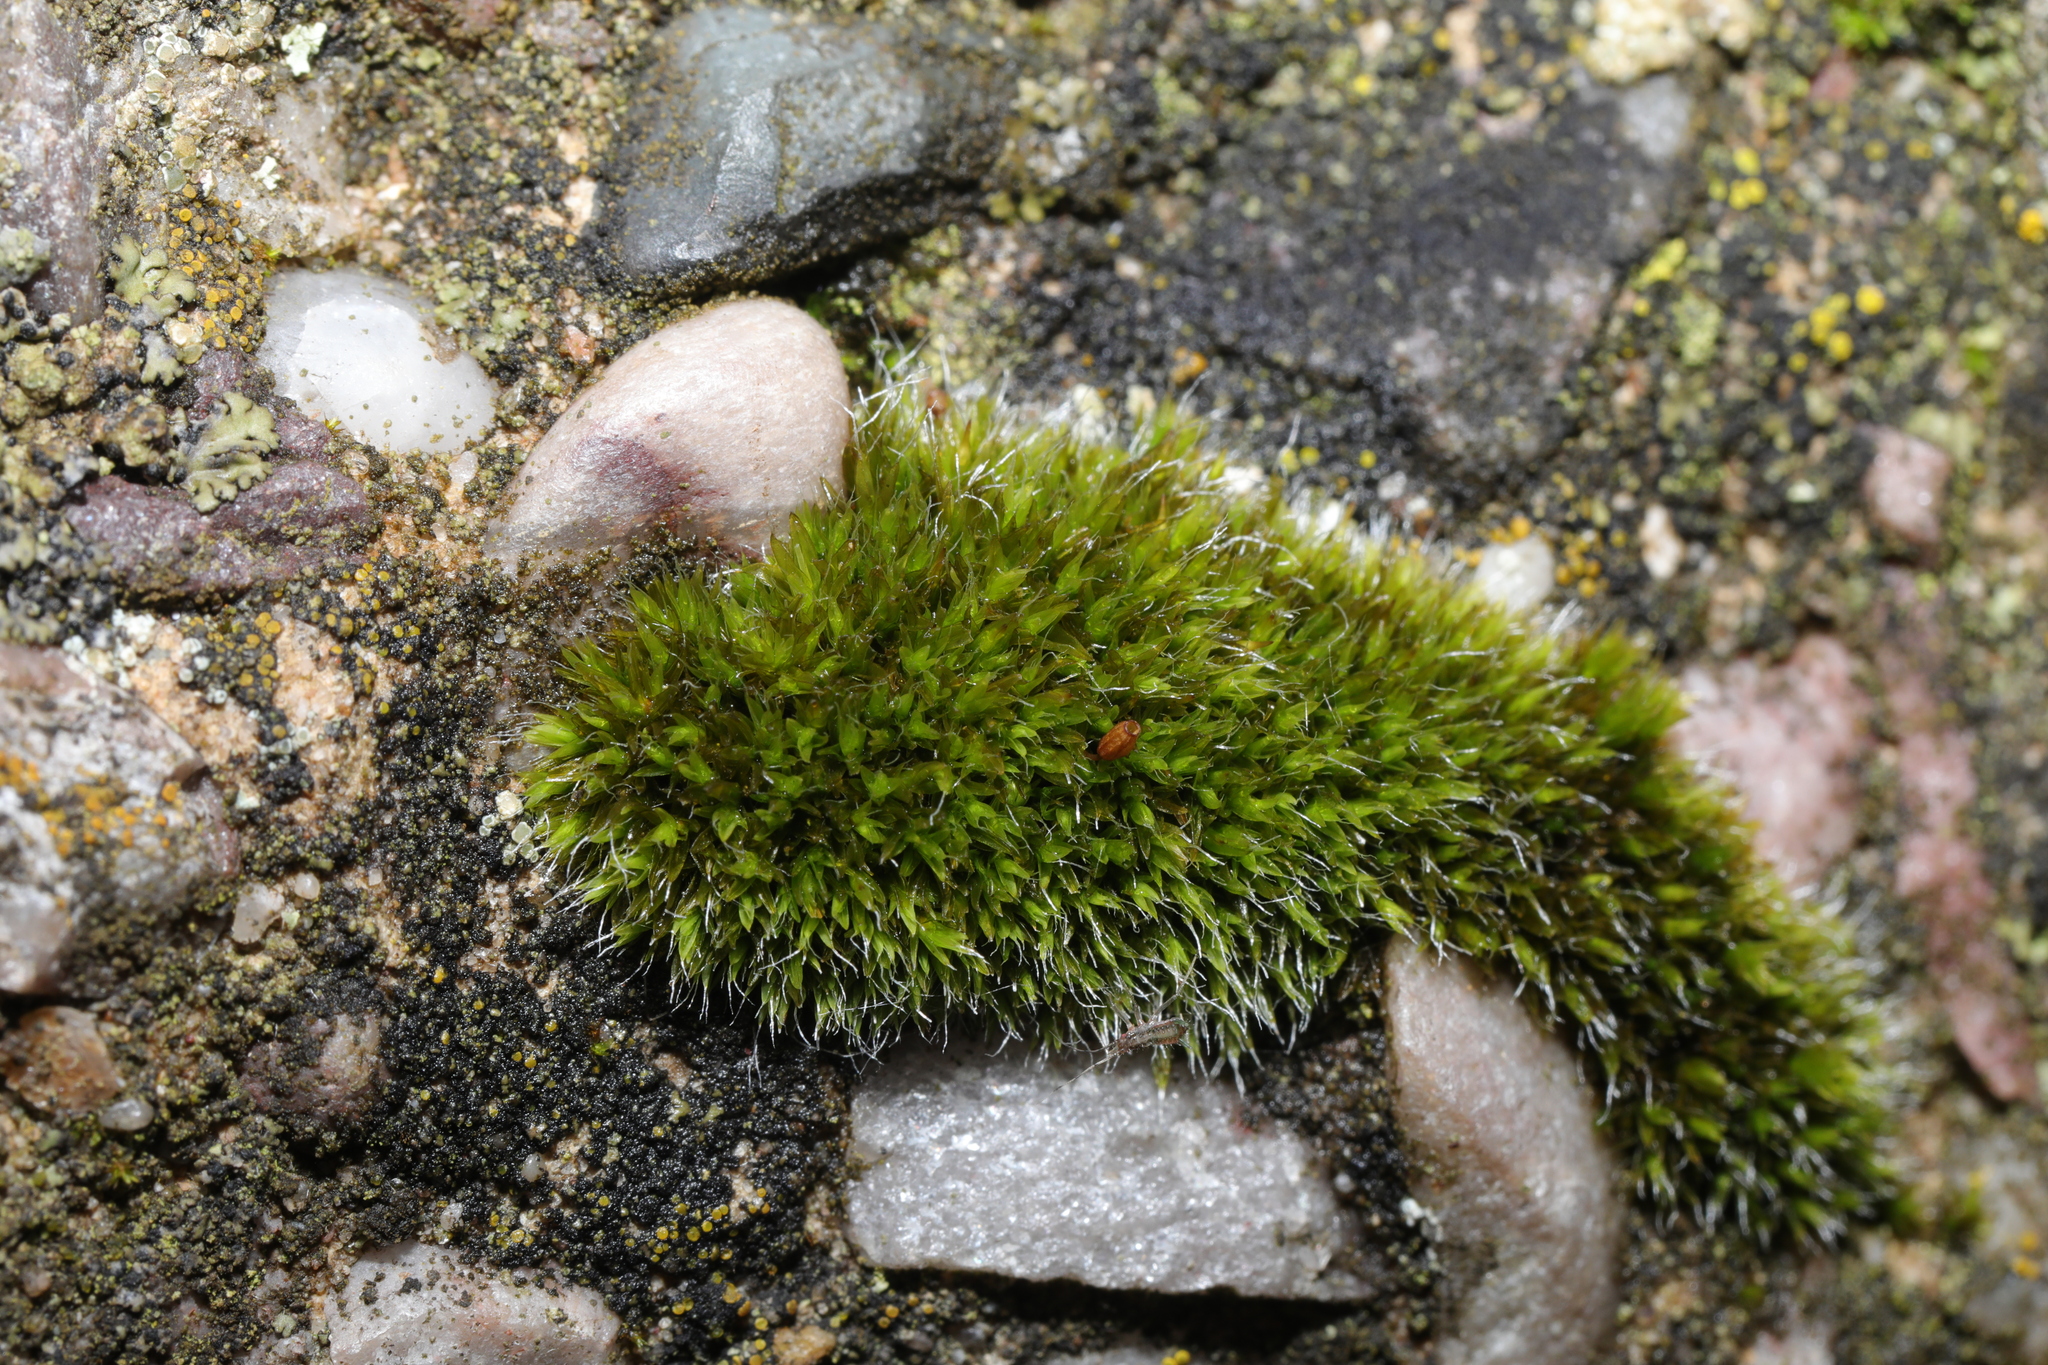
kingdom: Plantae
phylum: Bryophyta
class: Bryopsida
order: Grimmiales
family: Grimmiaceae
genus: Grimmia
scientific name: Grimmia pulvinata
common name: Grey-cushioned grimmia
